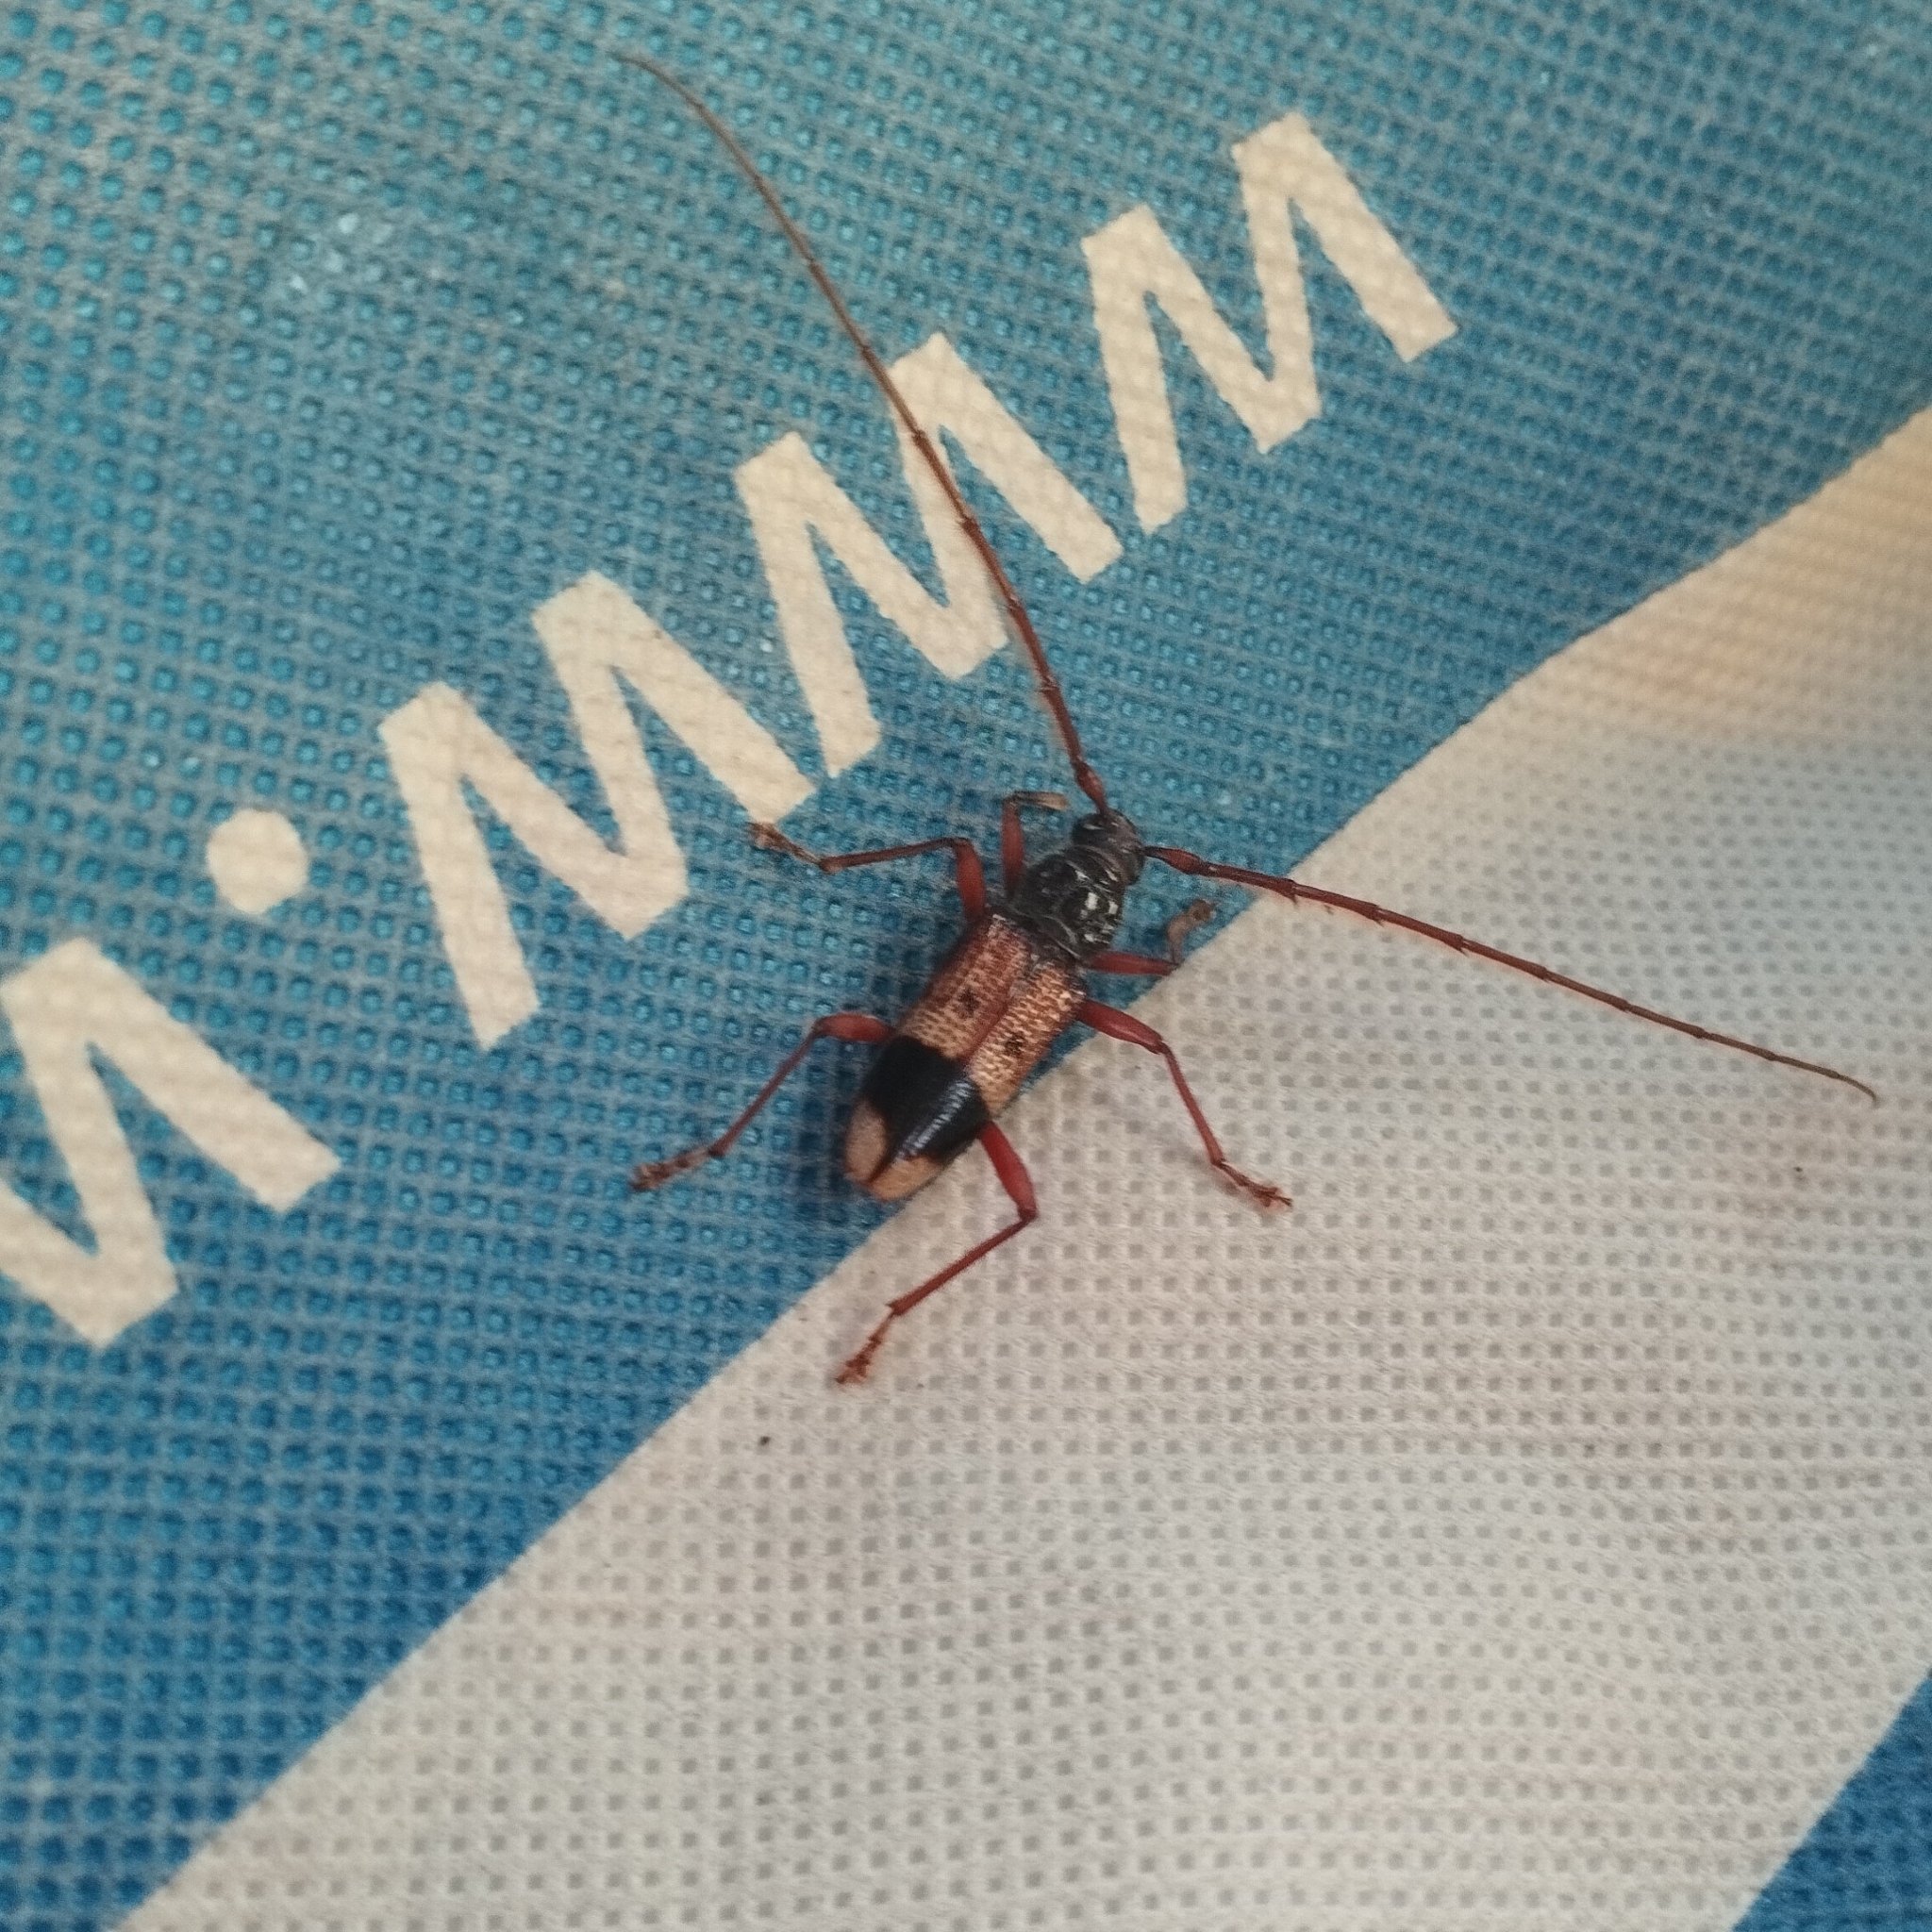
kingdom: Animalia
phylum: Arthropoda
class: Insecta
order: Coleoptera
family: Cerambycidae
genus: Phoracantha
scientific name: Phoracantha recurva
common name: Eucalyptus longhorned borer
